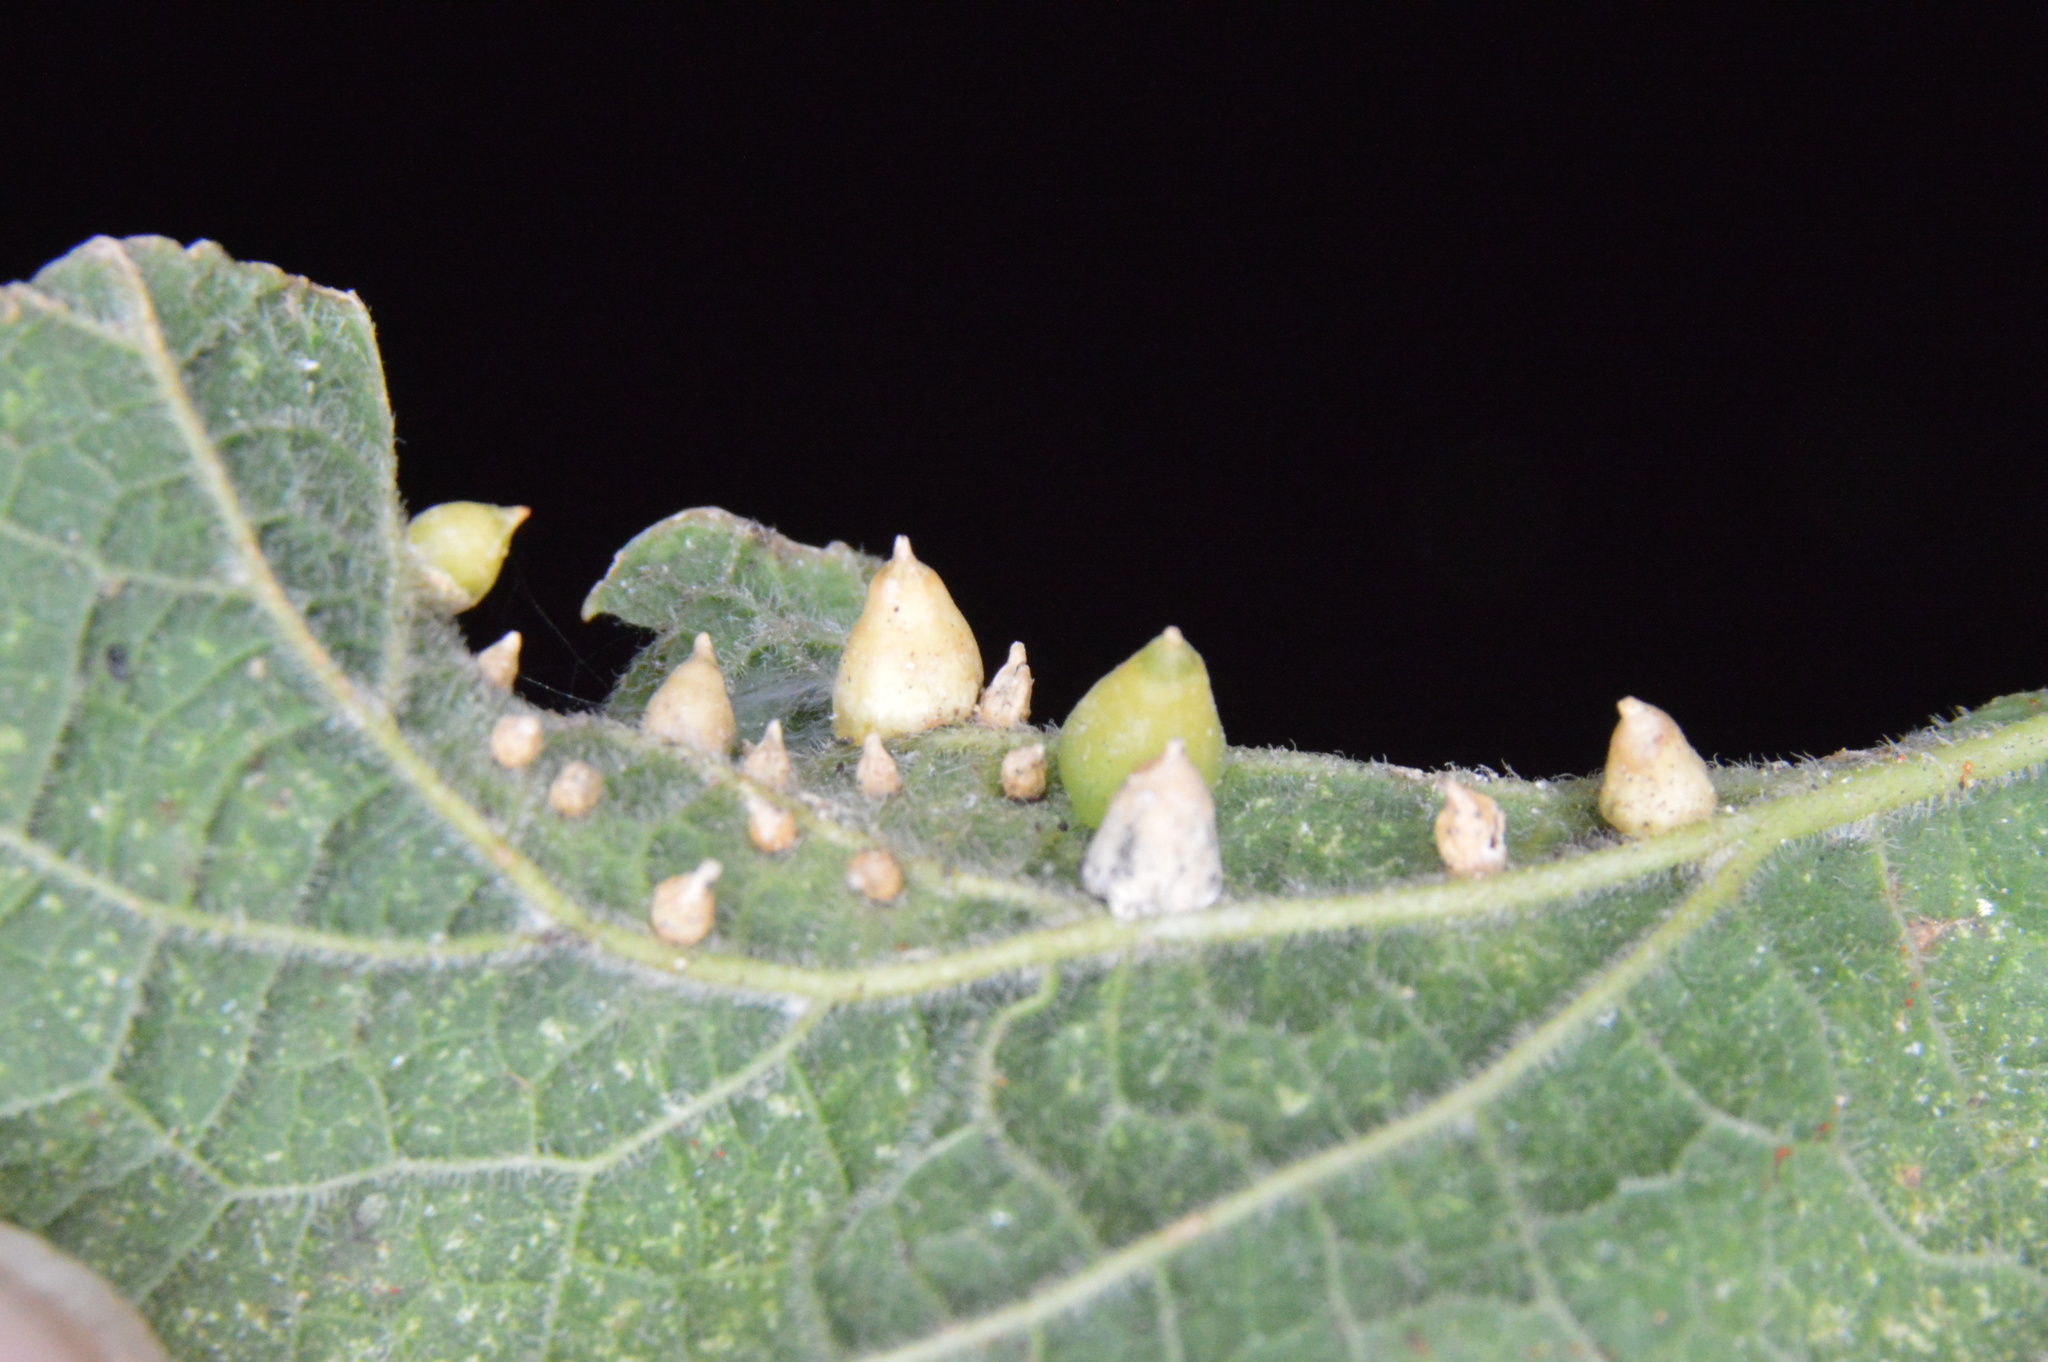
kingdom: Animalia
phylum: Arthropoda
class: Insecta
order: Diptera
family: Cecidomyiidae
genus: Celticecis
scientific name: Celticecis spiniformis
